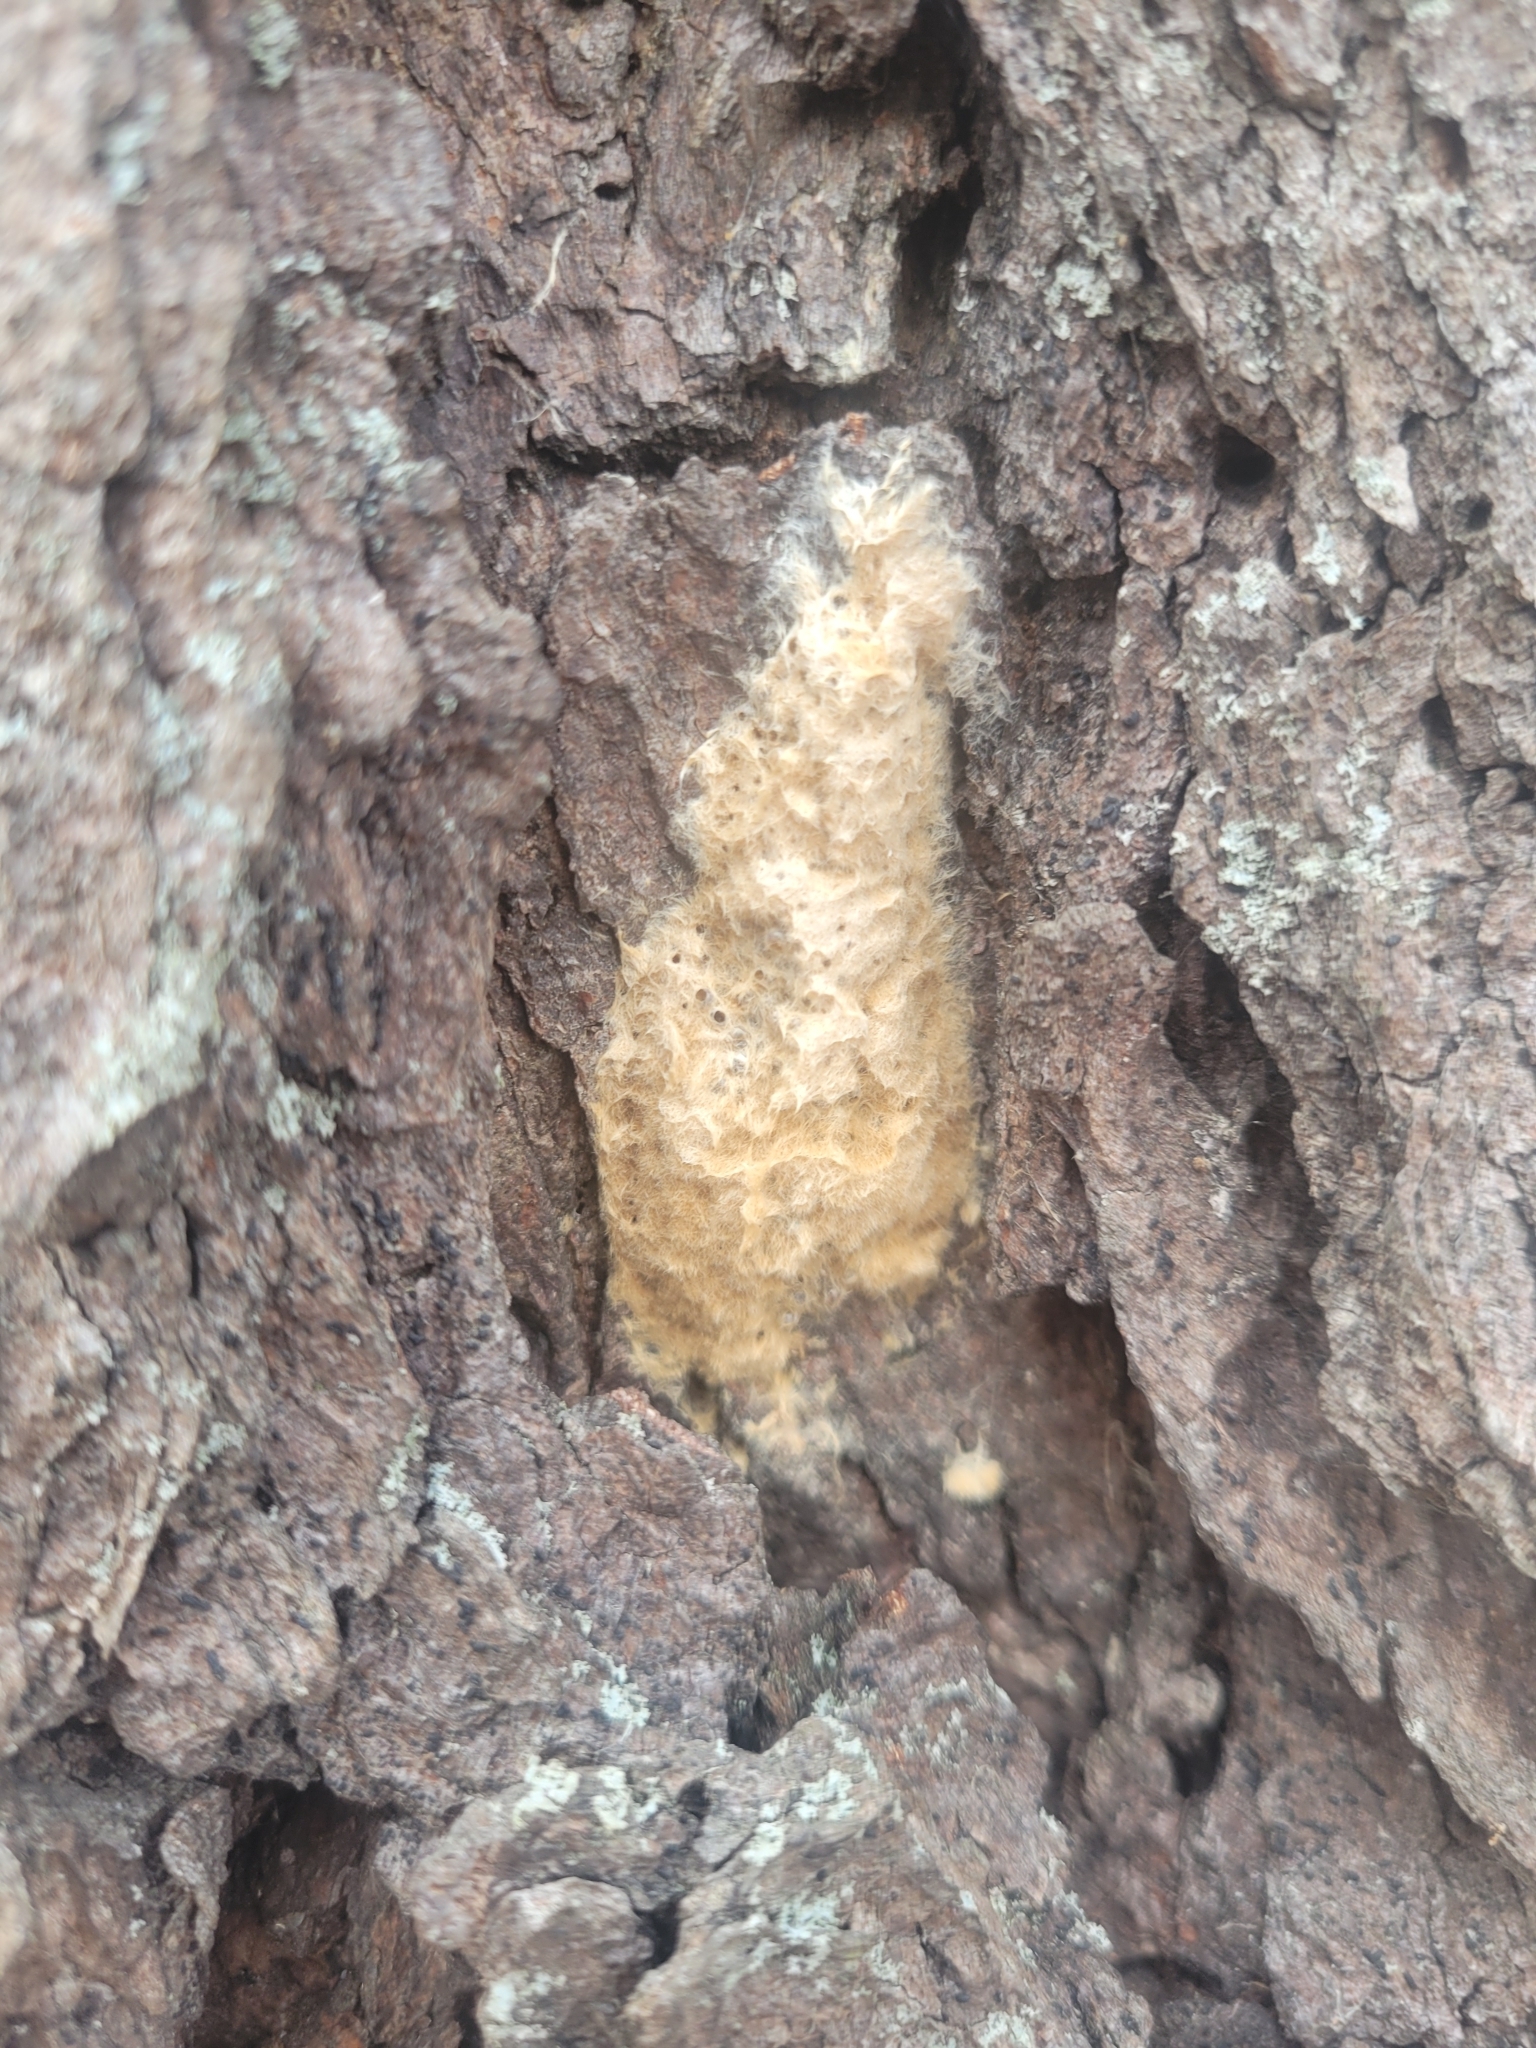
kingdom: Animalia
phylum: Arthropoda
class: Insecta
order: Lepidoptera
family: Erebidae
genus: Lymantria
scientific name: Lymantria dispar
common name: Gypsy moth
